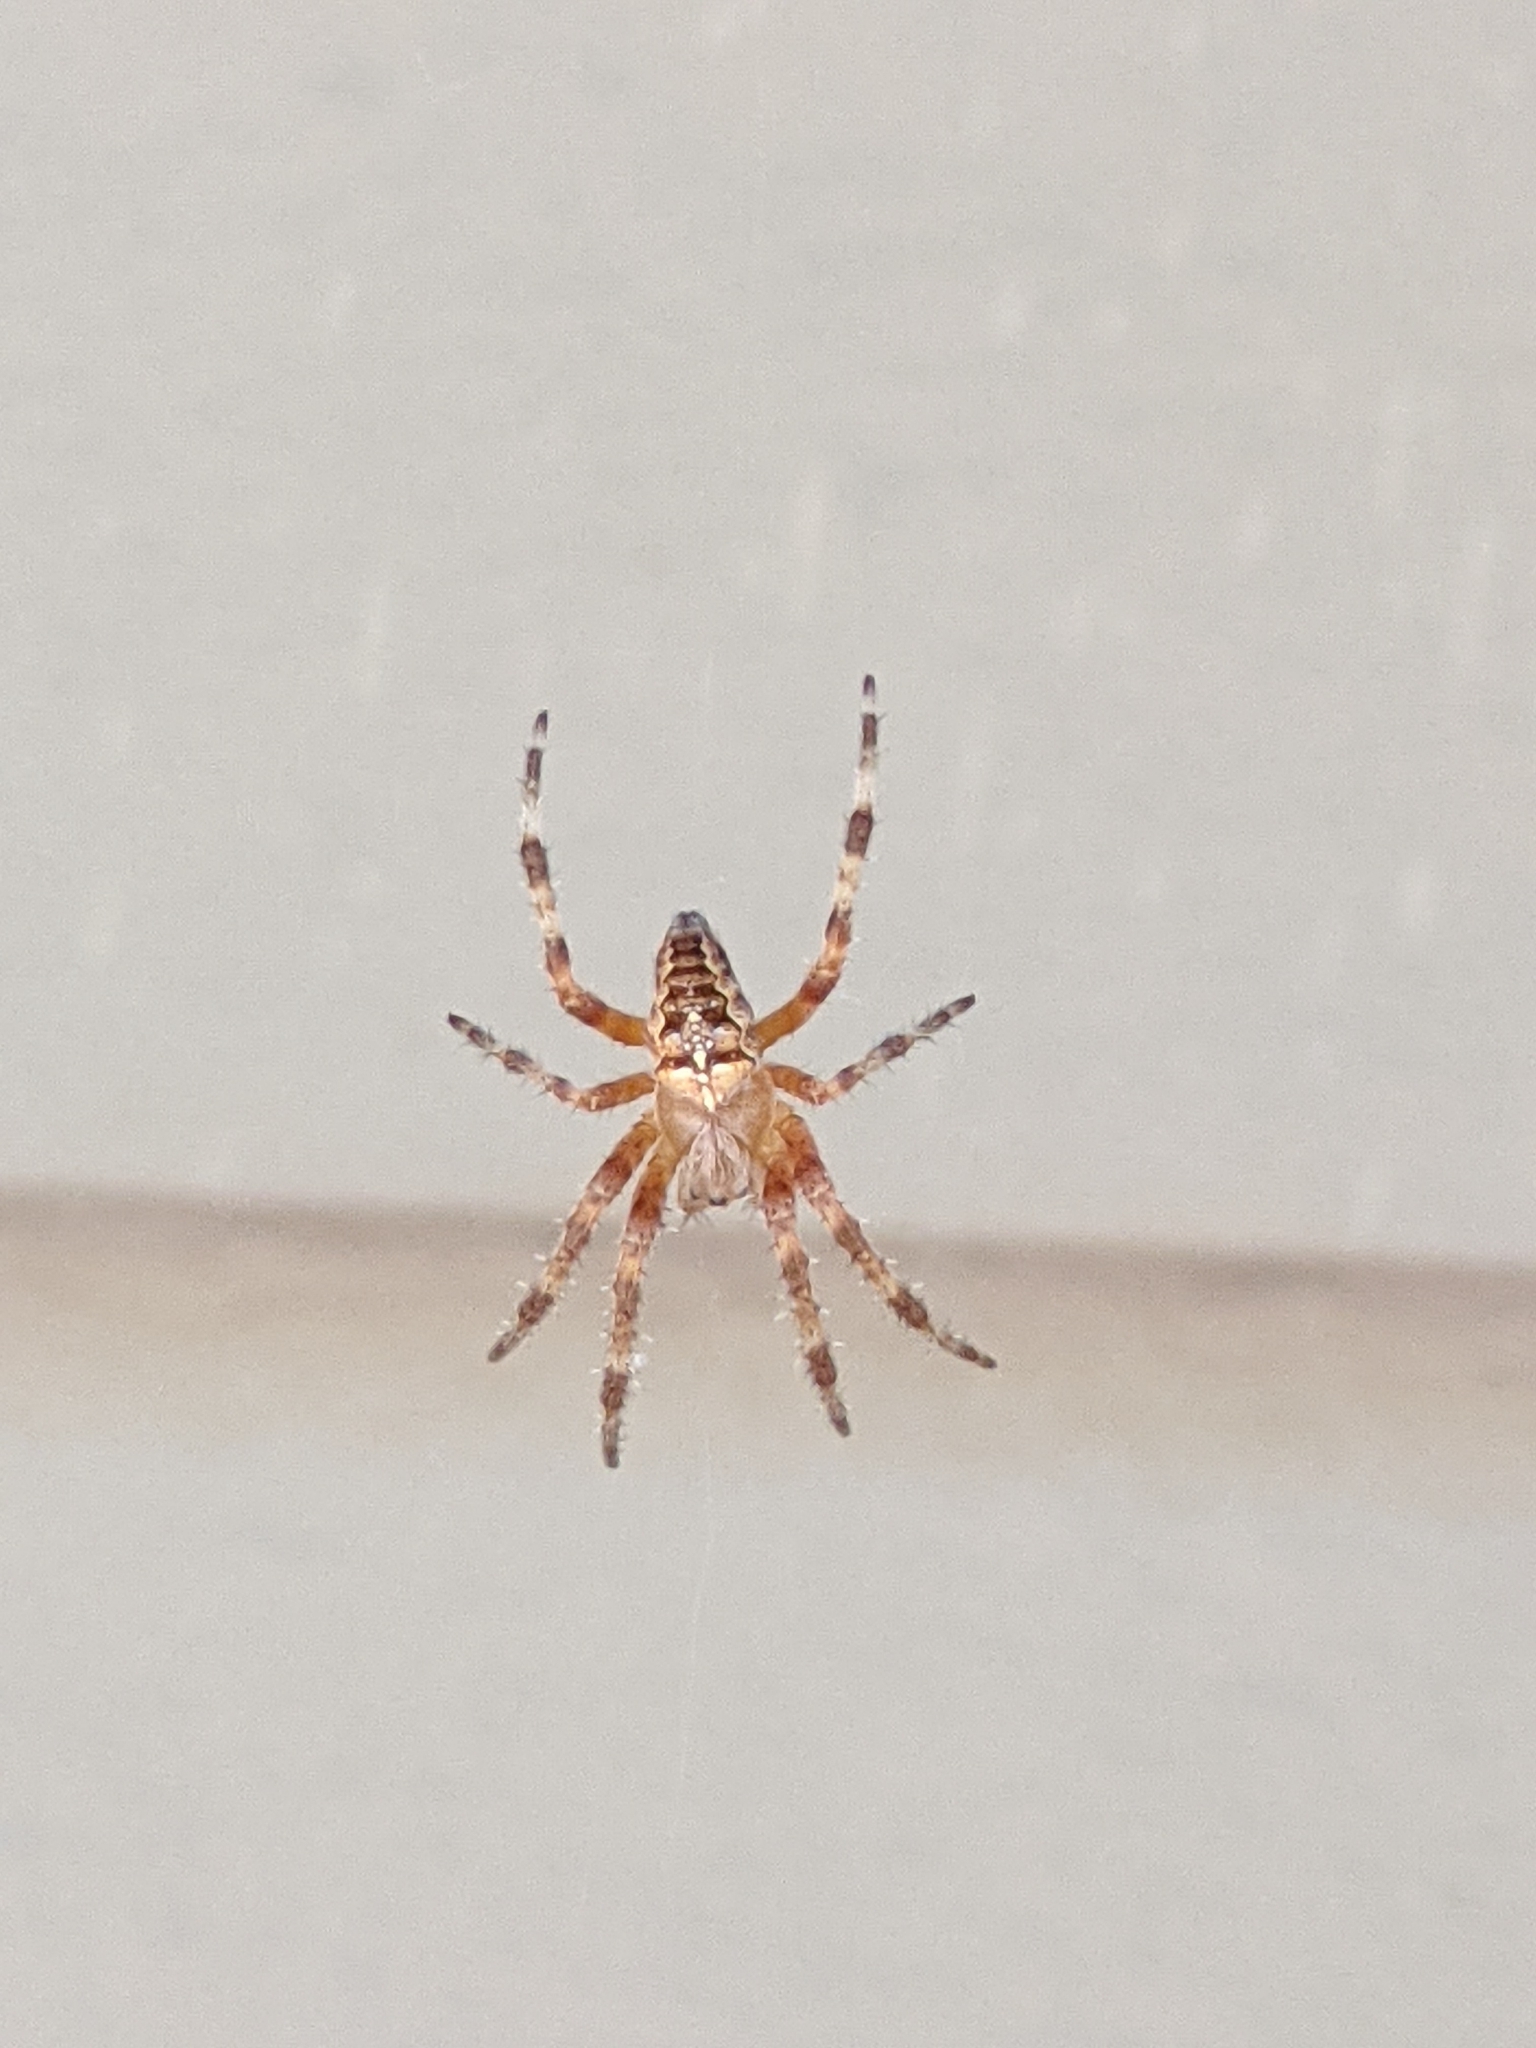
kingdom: Animalia
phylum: Arthropoda
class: Arachnida
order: Araneae
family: Araneidae
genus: Araneus
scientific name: Araneus diadematus
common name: Cross orbweaver
